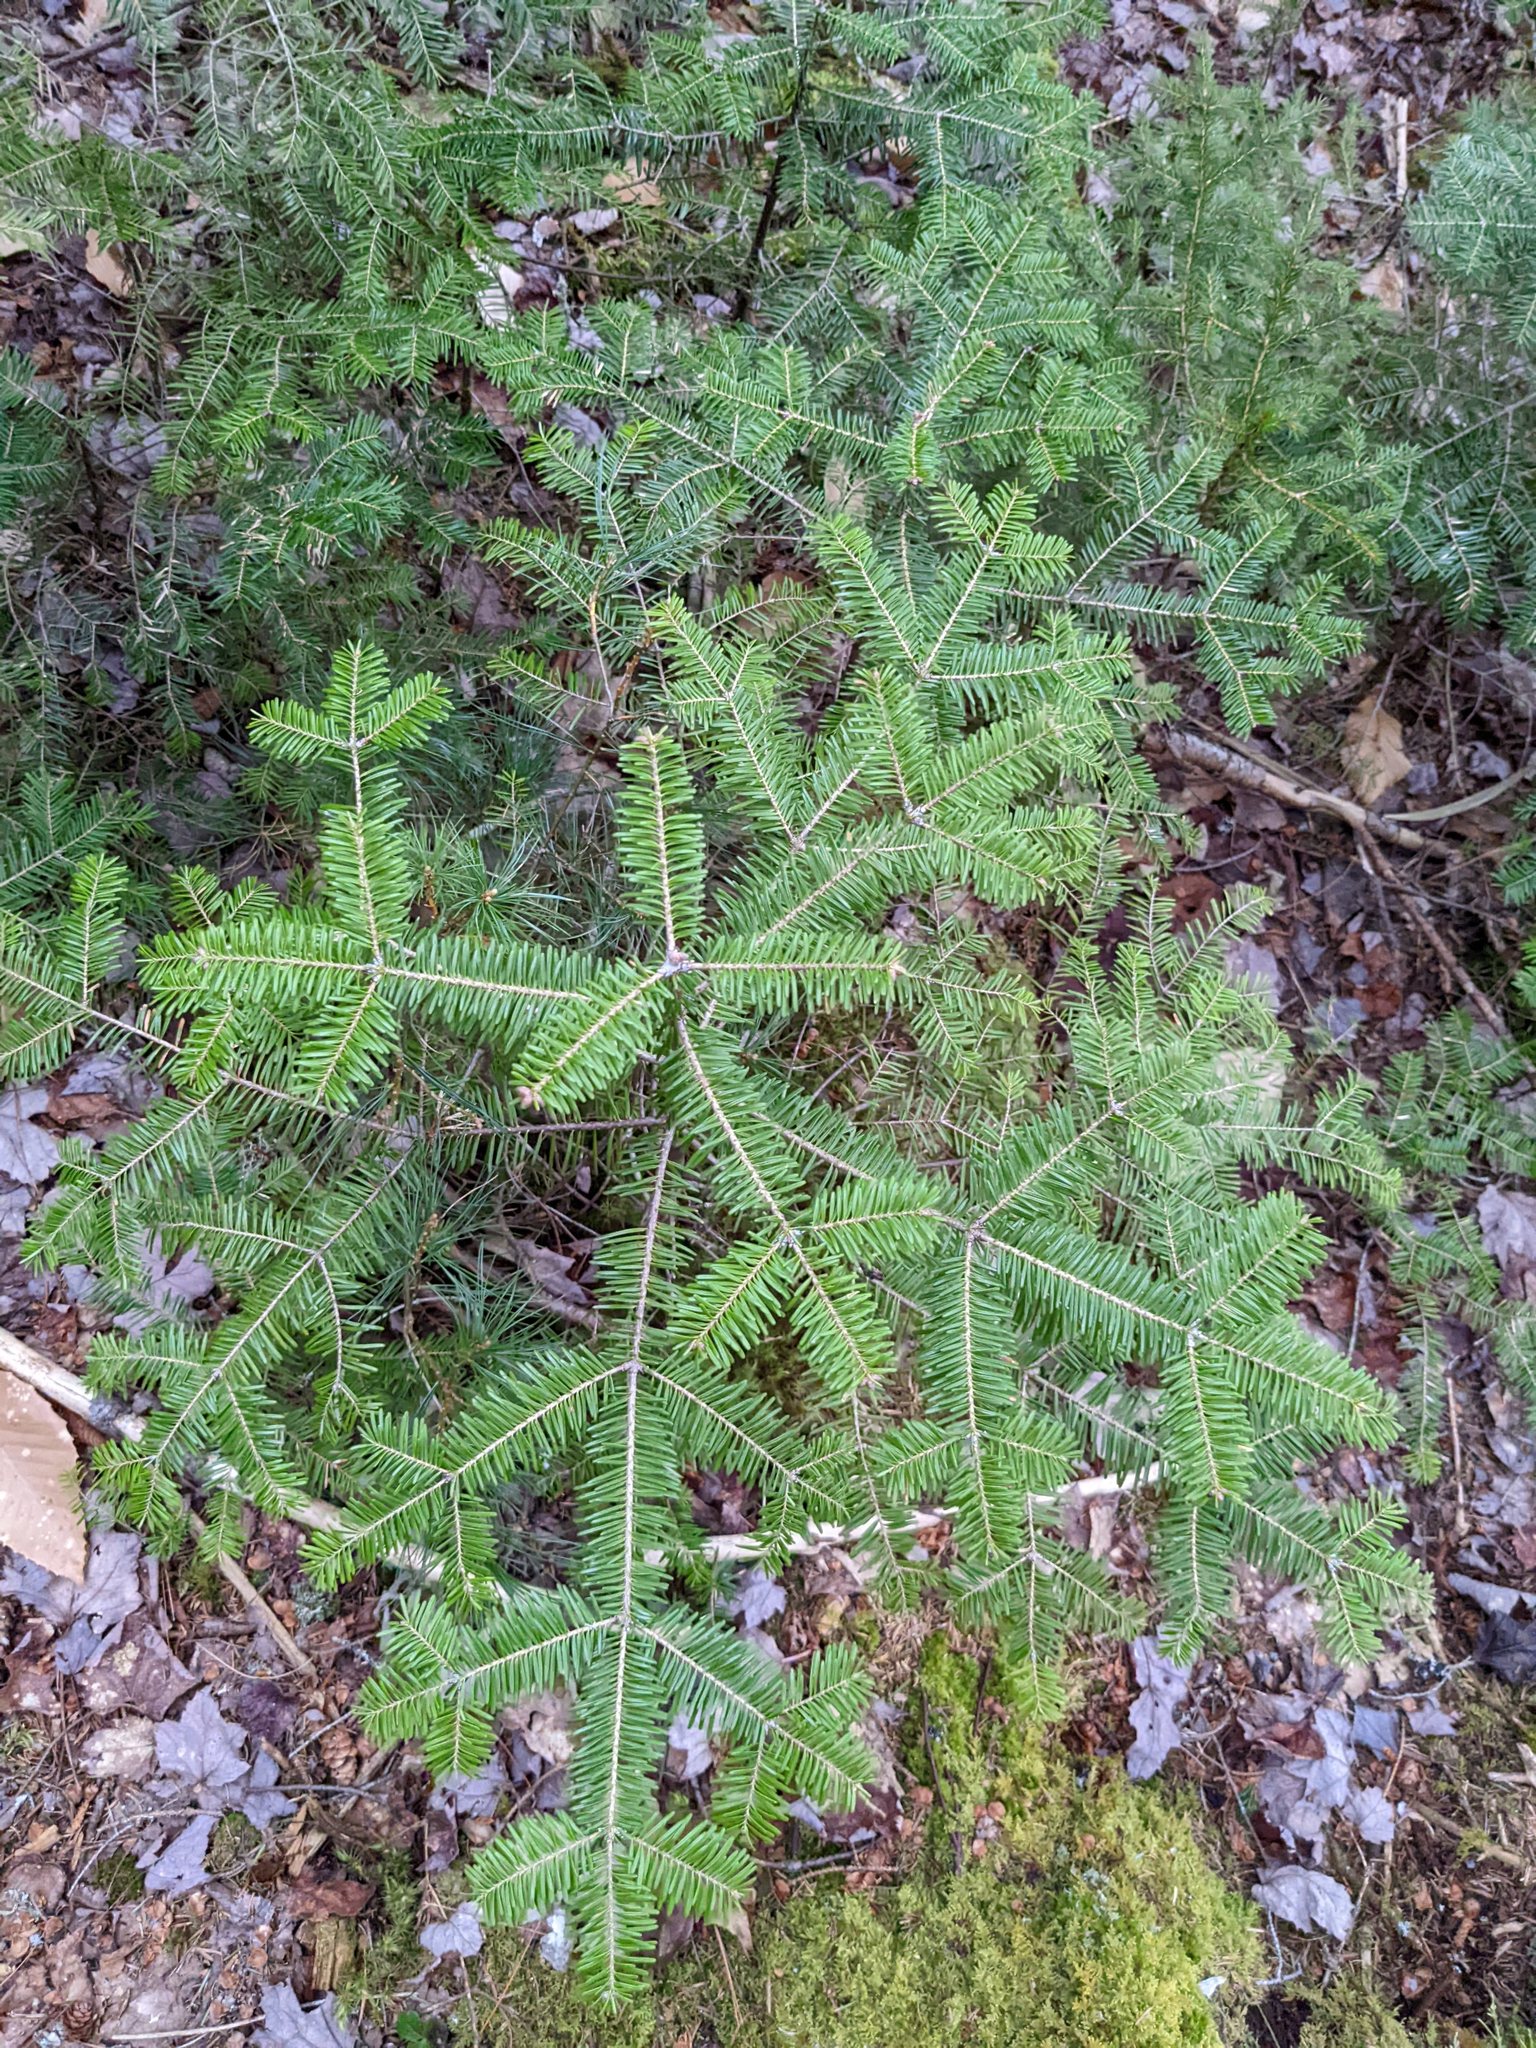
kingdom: Plantae
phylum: Tracheophyta
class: Pinopsida
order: Pinales
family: Pinaceae
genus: Abies
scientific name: Abies balsamea
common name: Balsam fir
